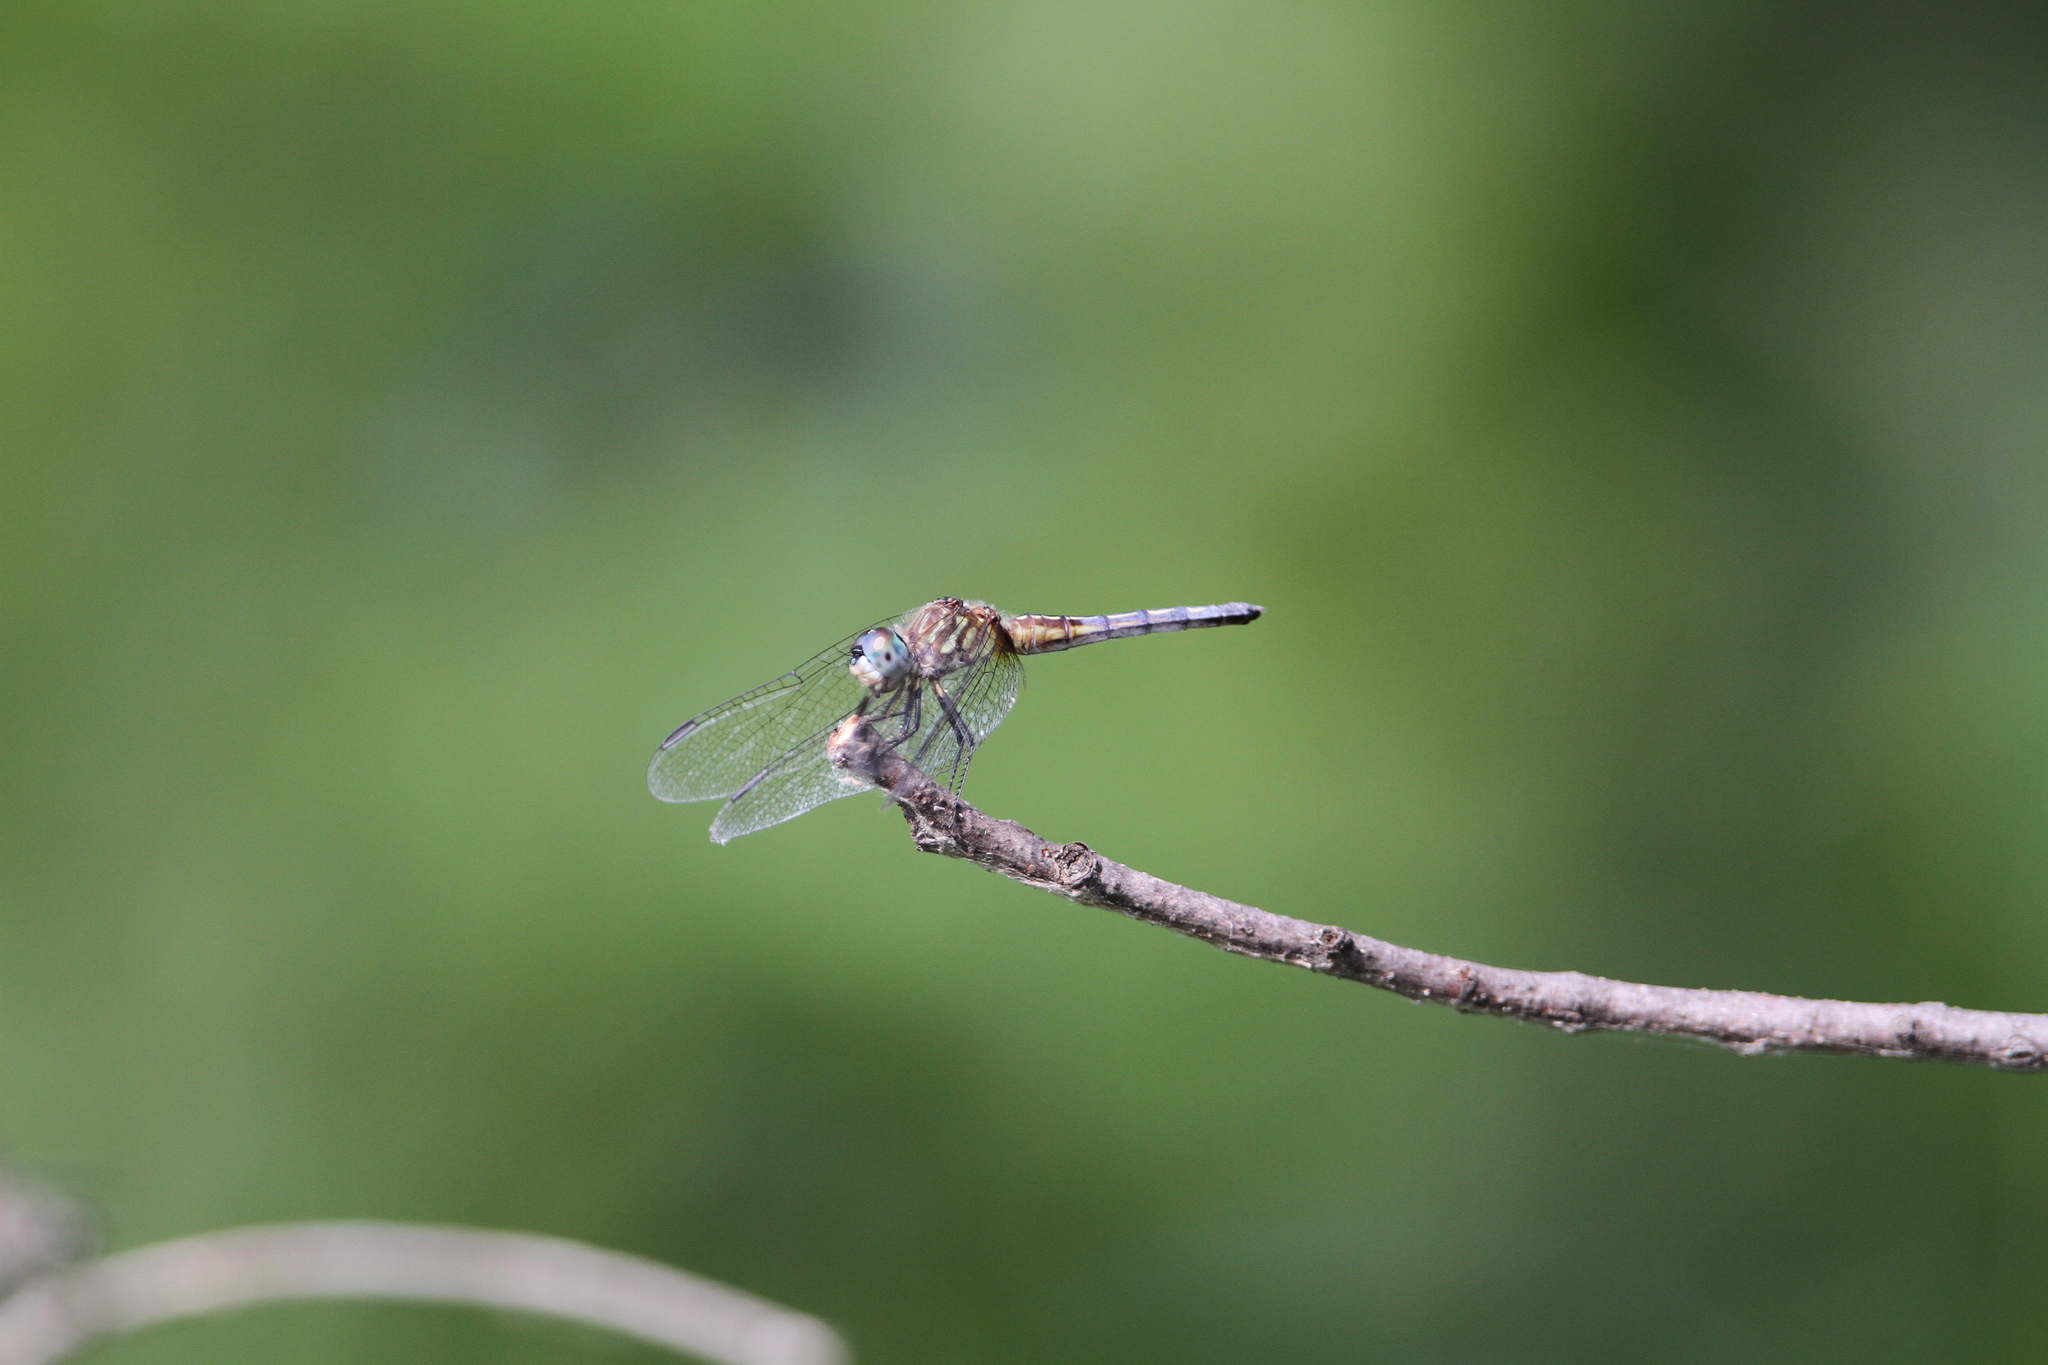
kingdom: Animalia
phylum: Arthropoda
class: Insecta
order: Odonata
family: Libellulidae
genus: Pachydiplax
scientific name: Pachydiplax longipennis
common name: Blue dasher
